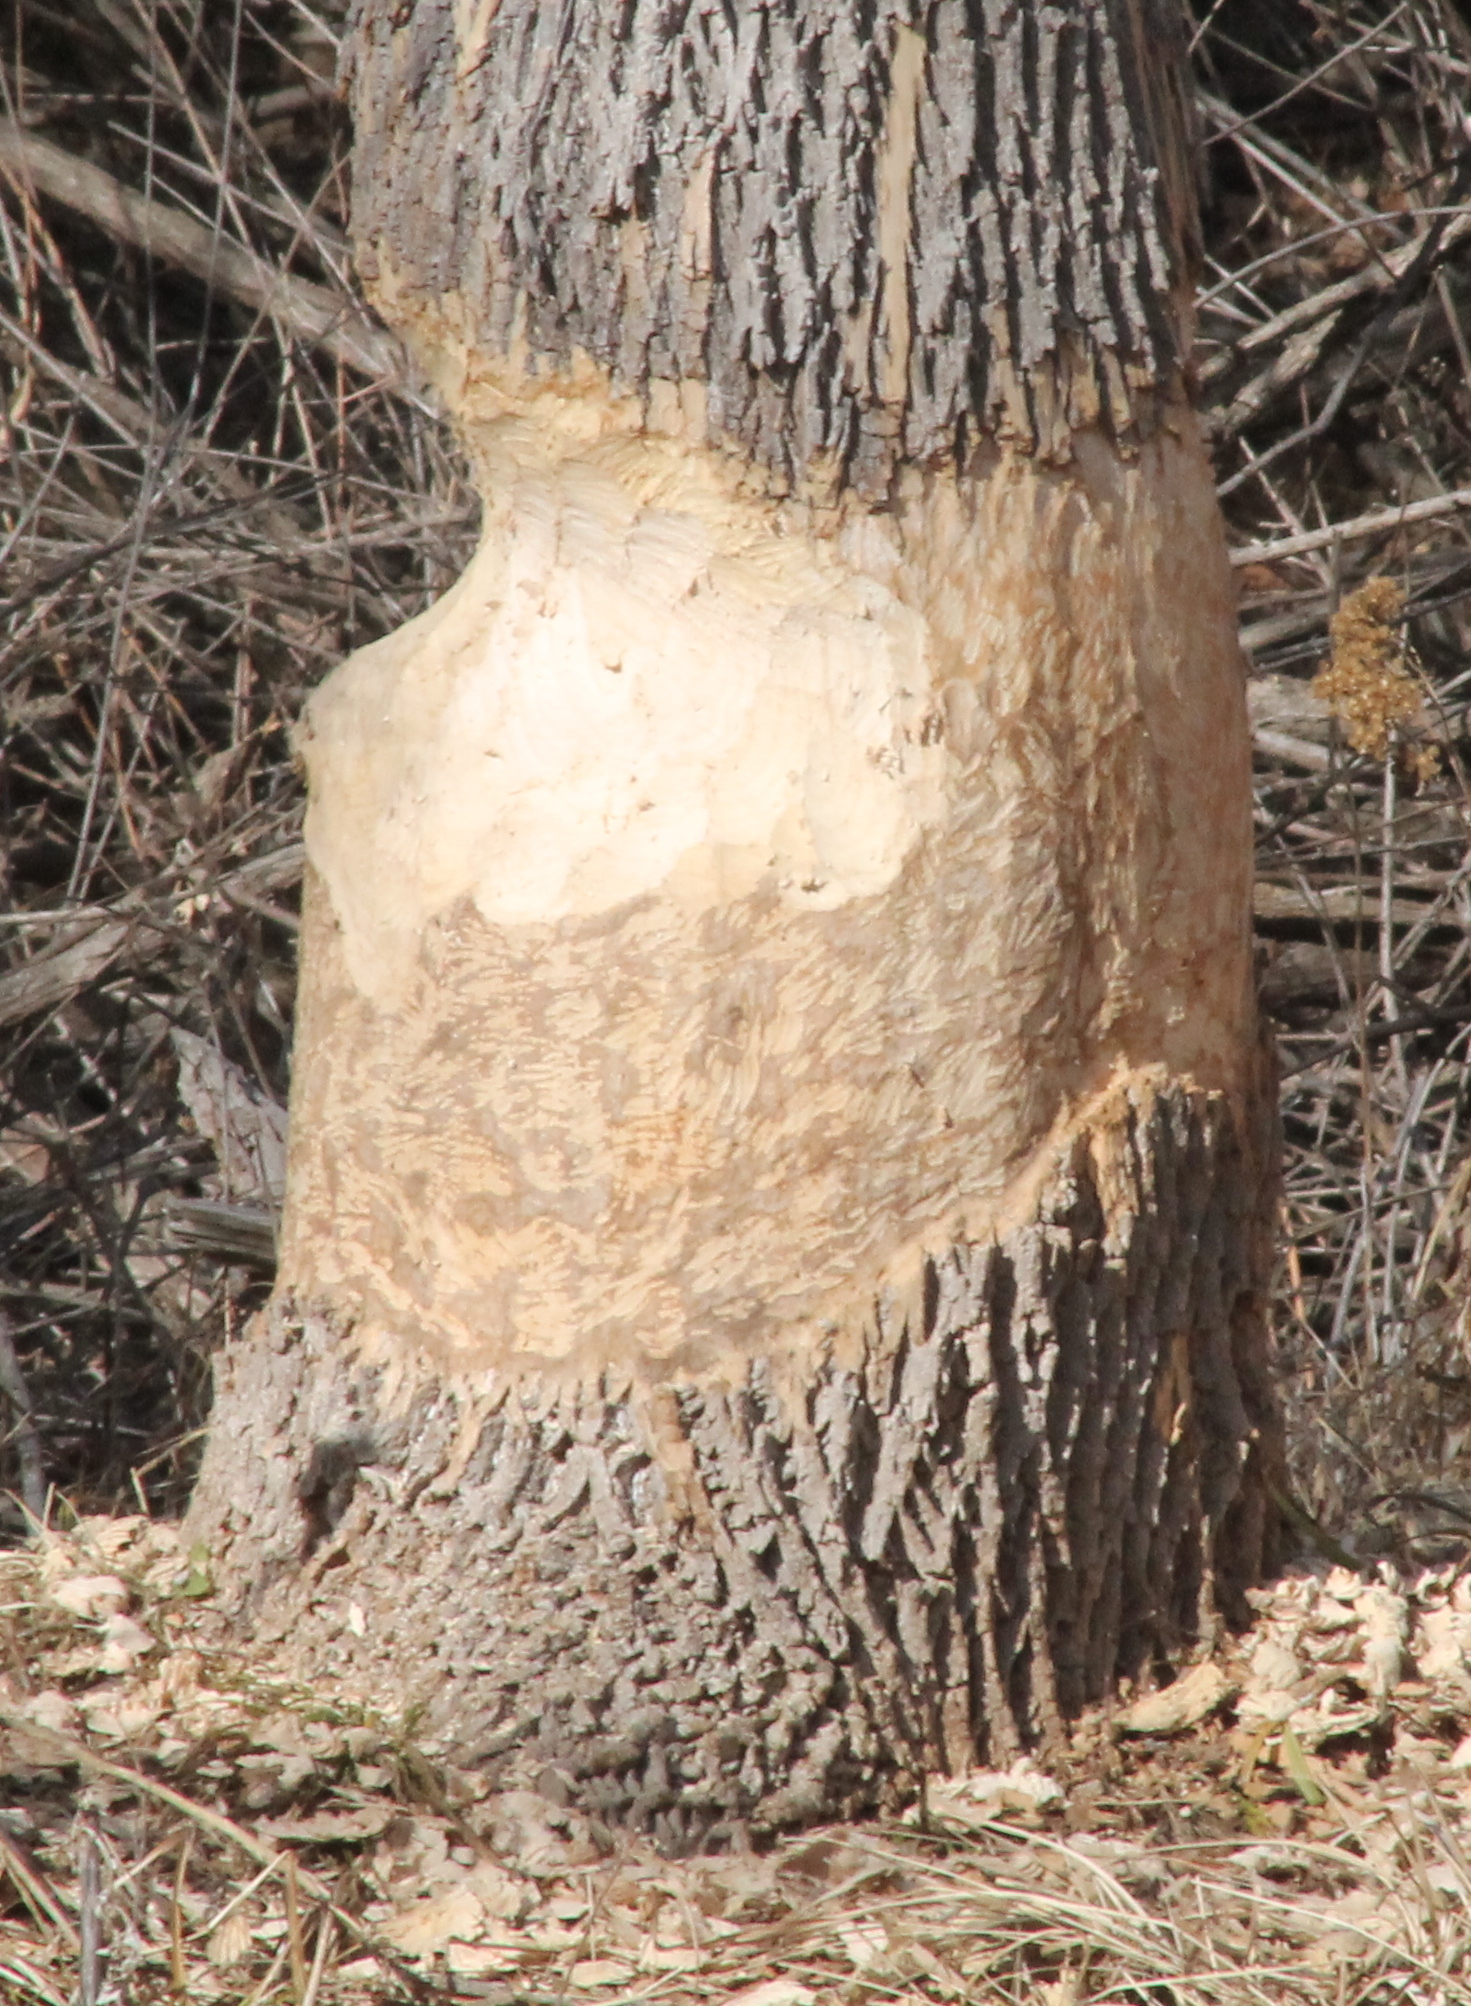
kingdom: Animalia
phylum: Chordata
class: Mammalia
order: Rodentia
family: Castoridae
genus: Castor
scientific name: Castor canadensis
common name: American beaver
